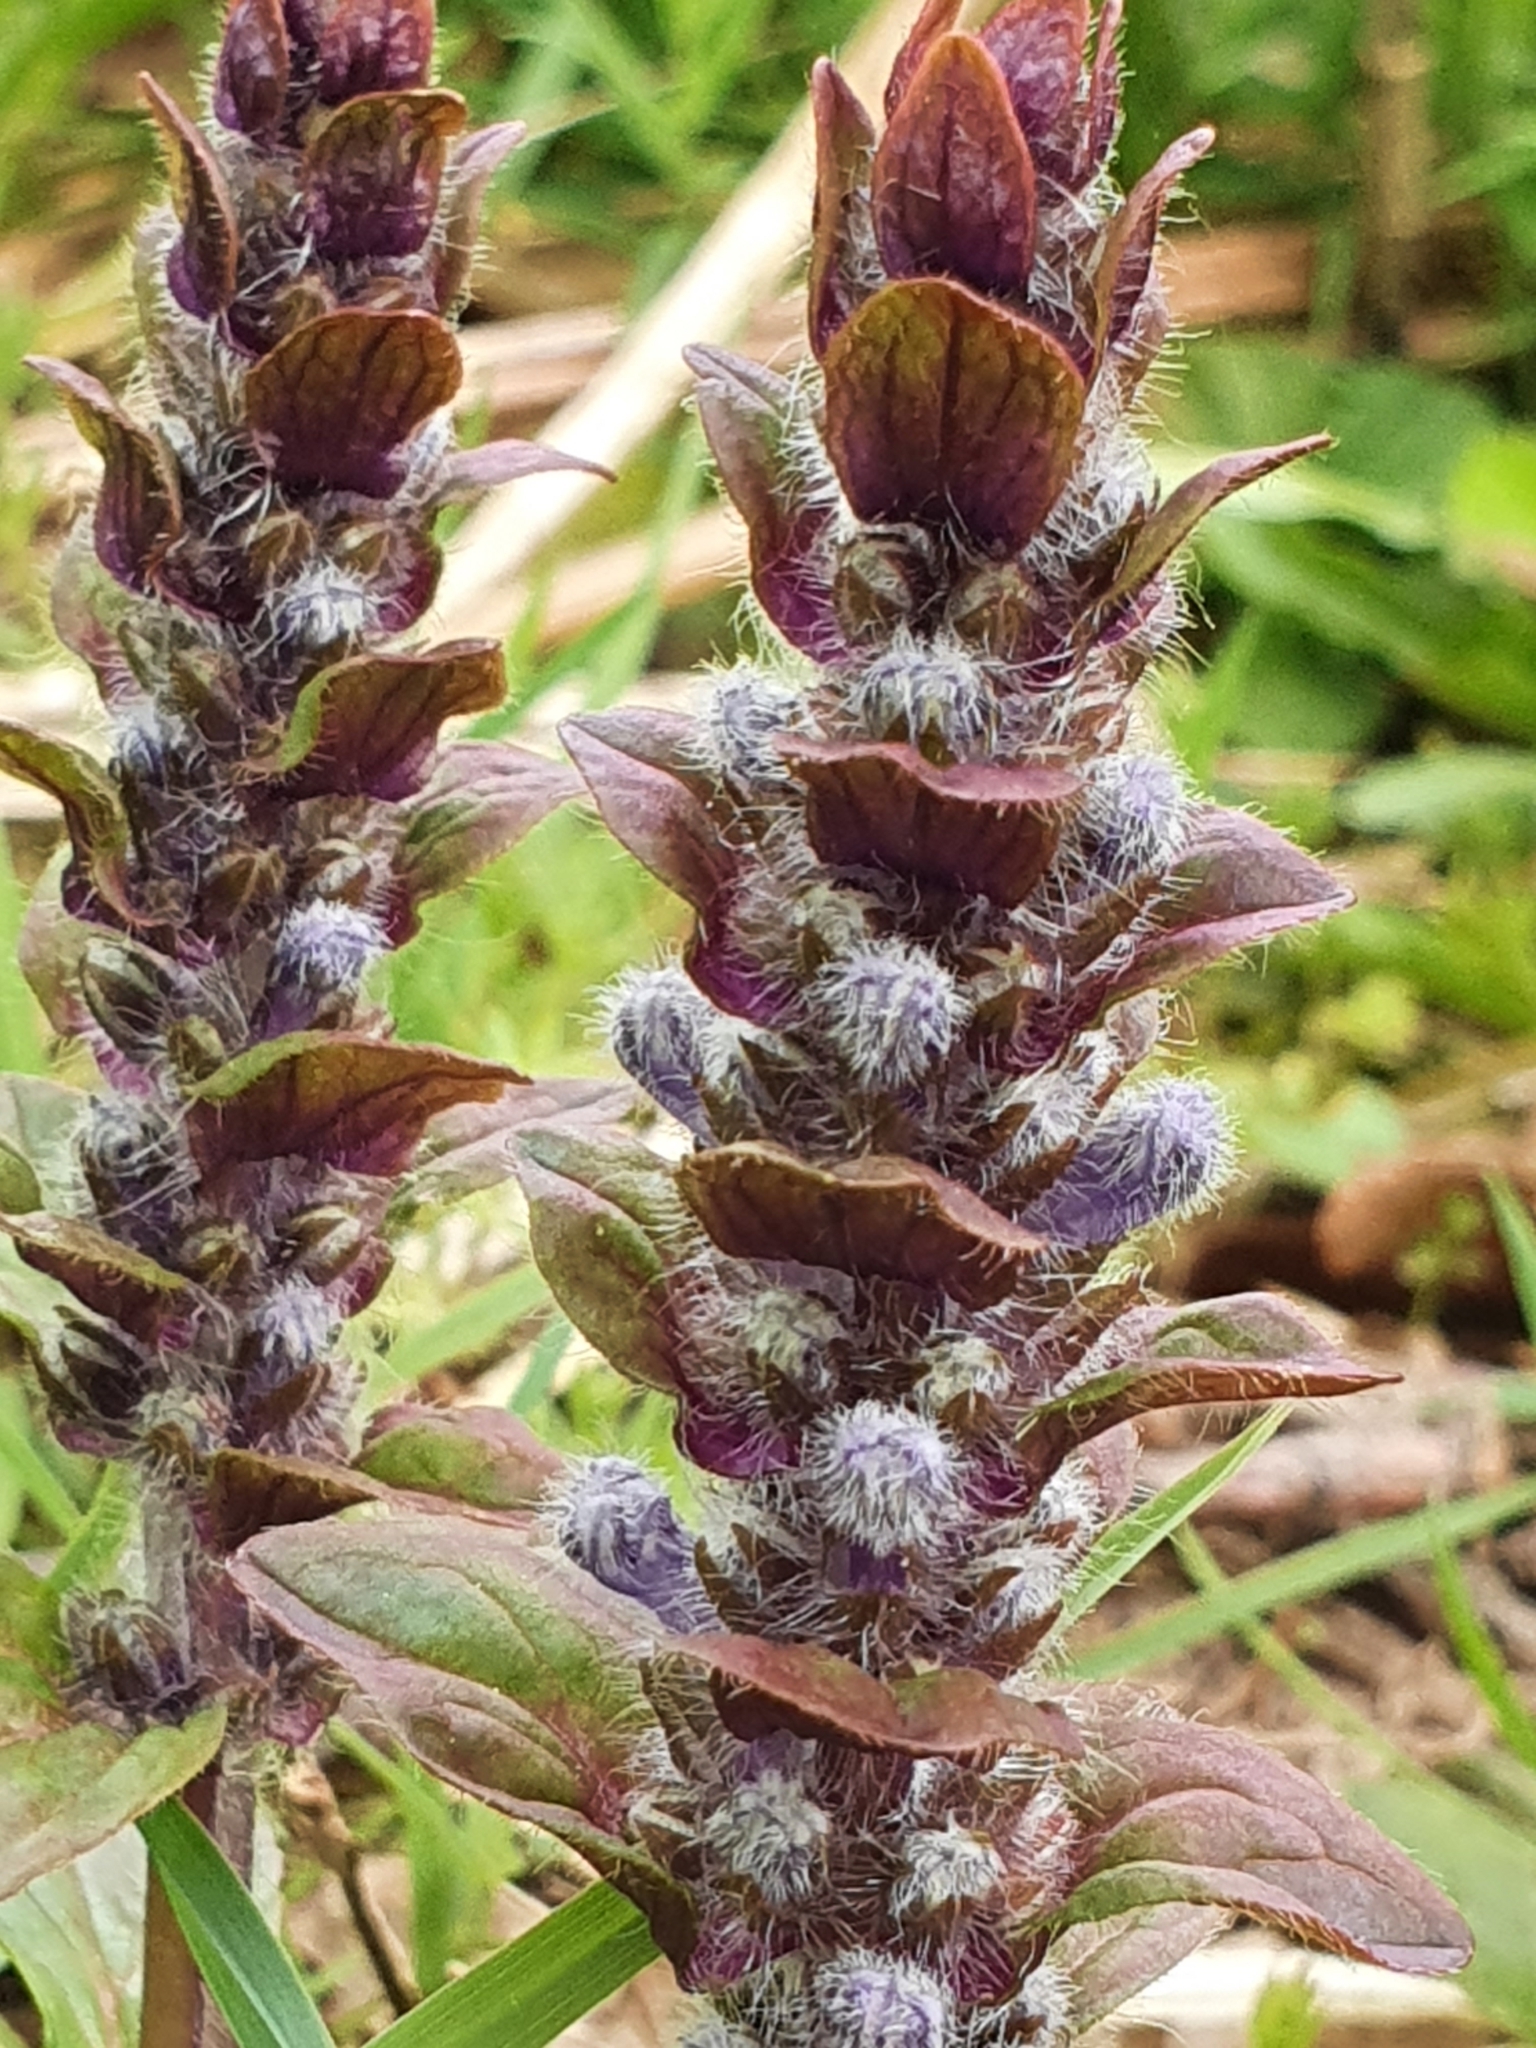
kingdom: Plantae
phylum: Tracheophyta
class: Magnoliopsida
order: Lamiales
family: Lamiaceae
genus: Ajuga
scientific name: Ajuga reptans
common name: Bugle
